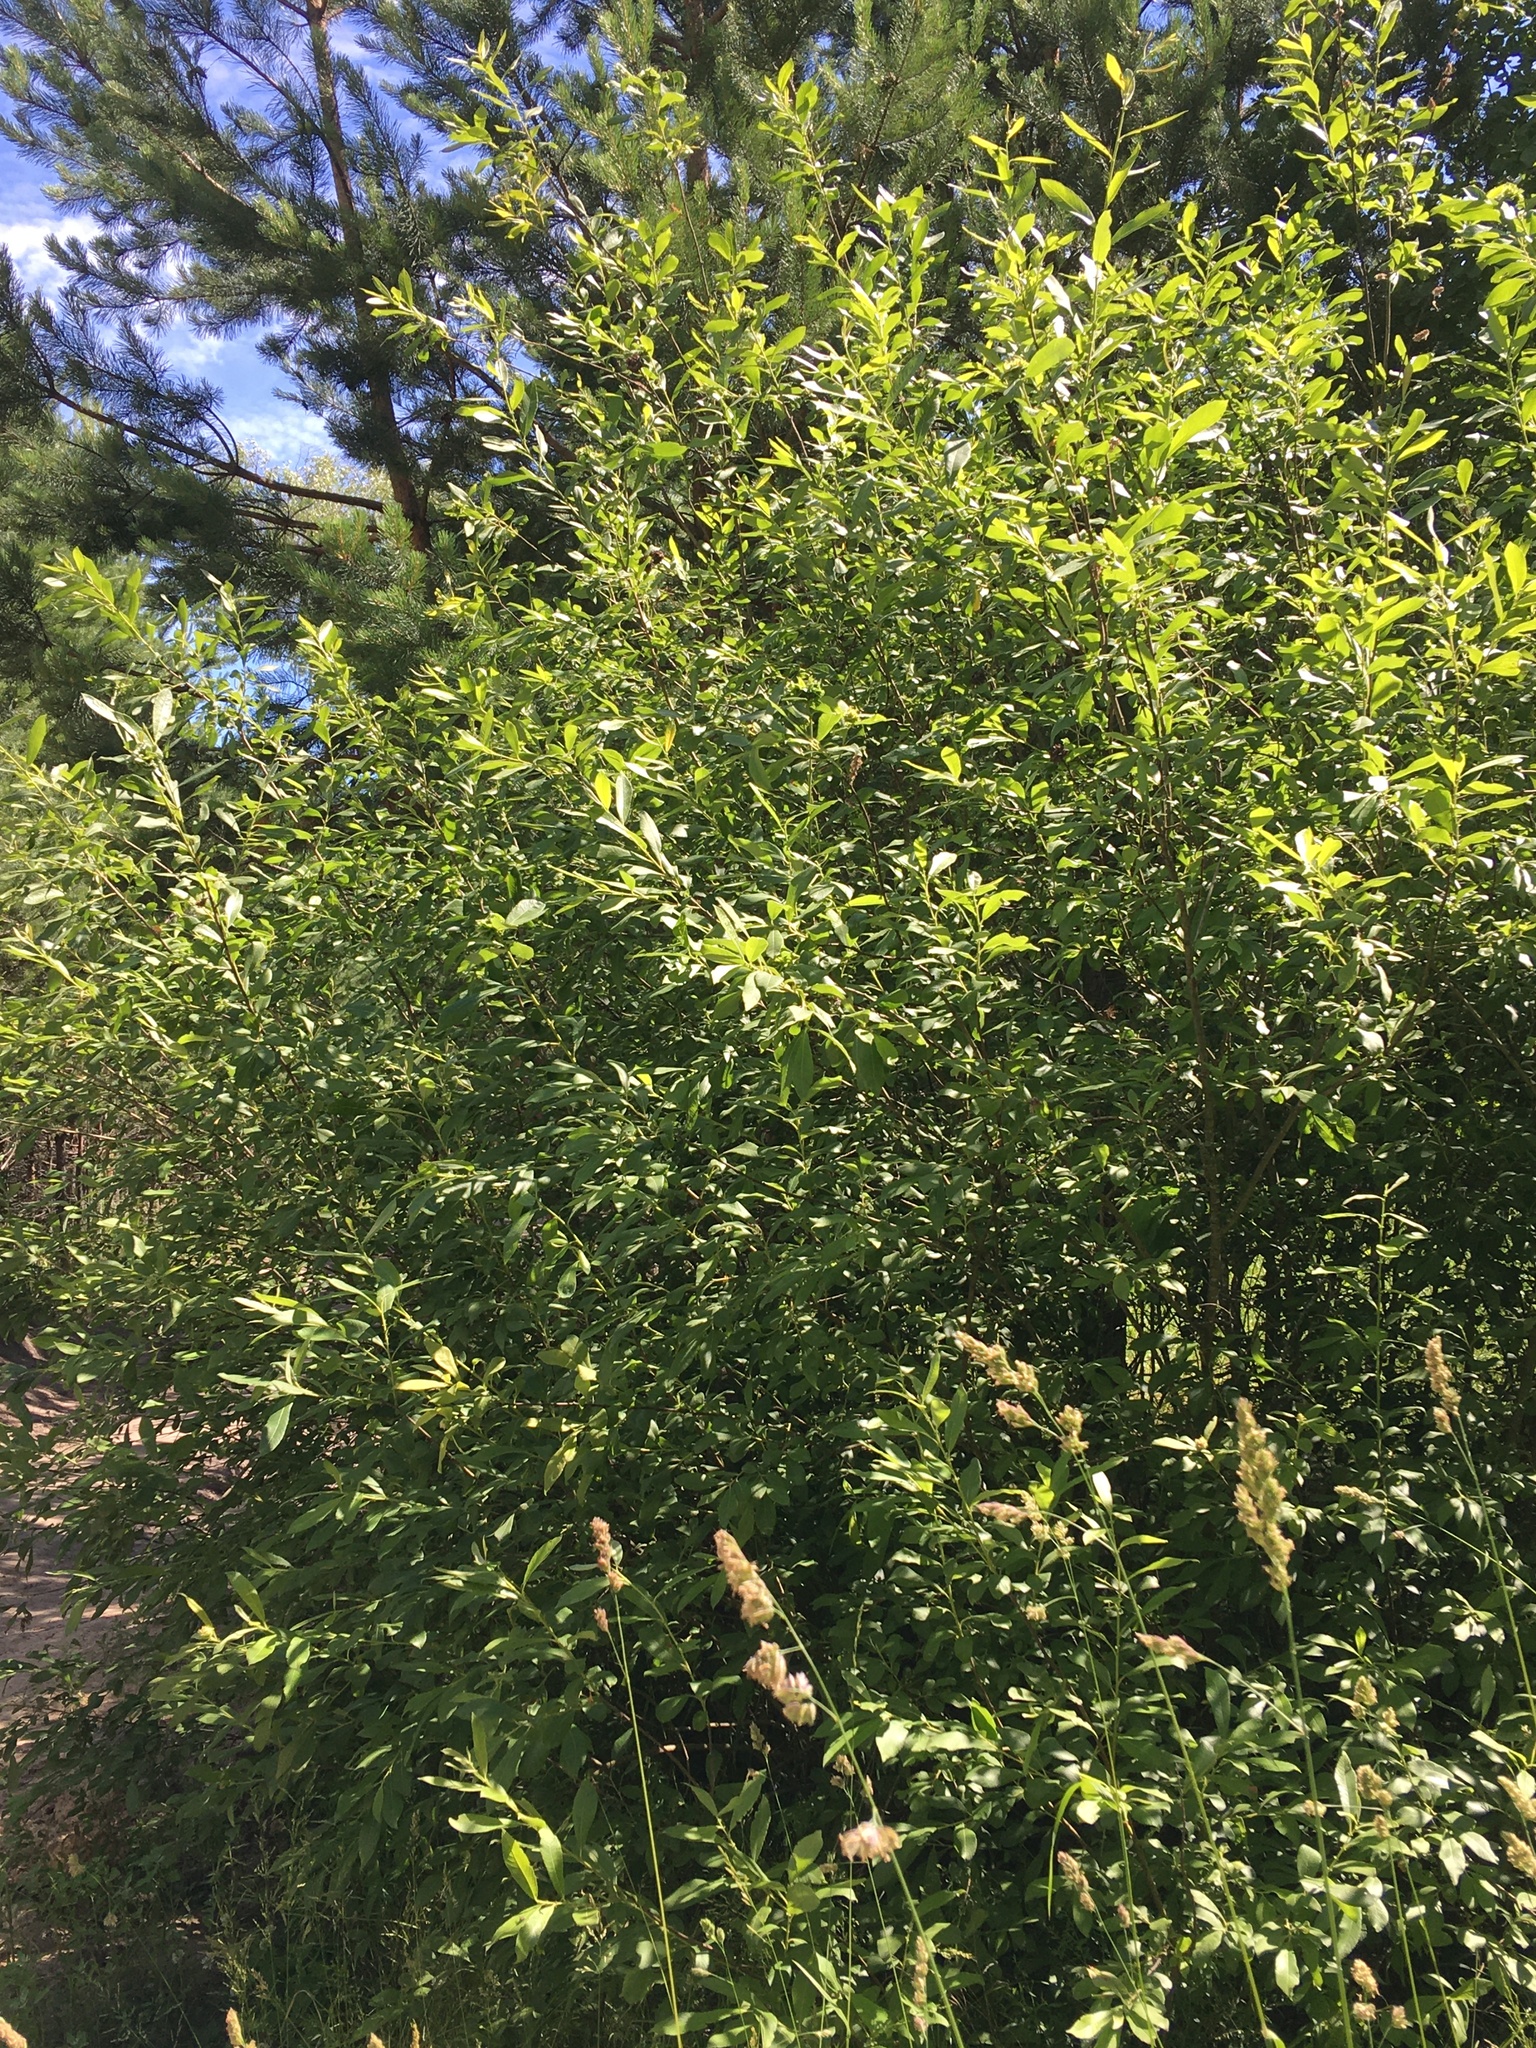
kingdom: Plantae
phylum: Tracheophyta
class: Magnoliopsida
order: Malpighiales
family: Salicaceae
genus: Salix
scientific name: Salix cinerea
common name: Common sallow
